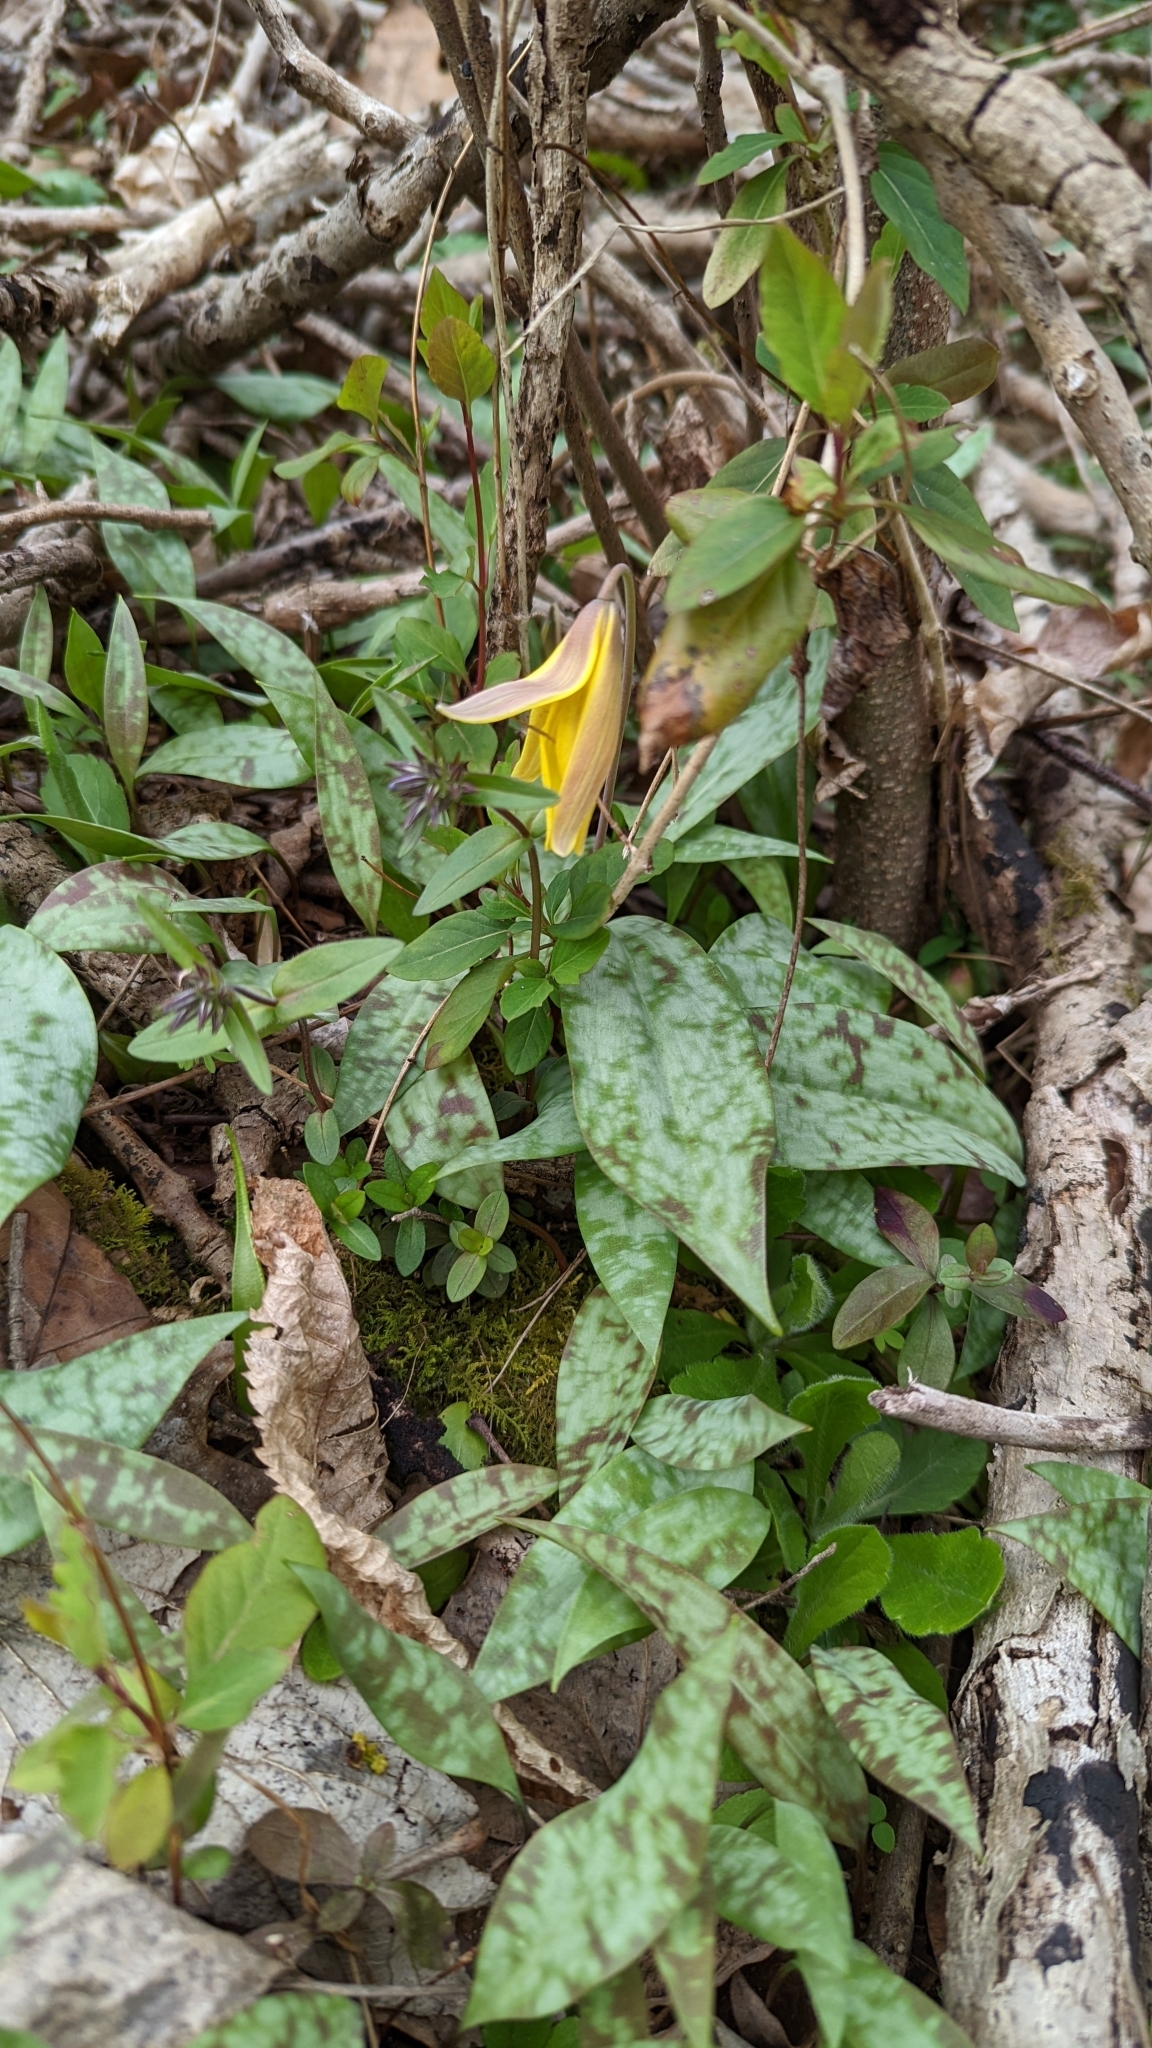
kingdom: Plantae
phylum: Tracheophyta
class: Liliopsida
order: Liliales
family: Liliaceae
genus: Erythronium
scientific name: Erythronium americanum
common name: Yellow adder's-tongue
